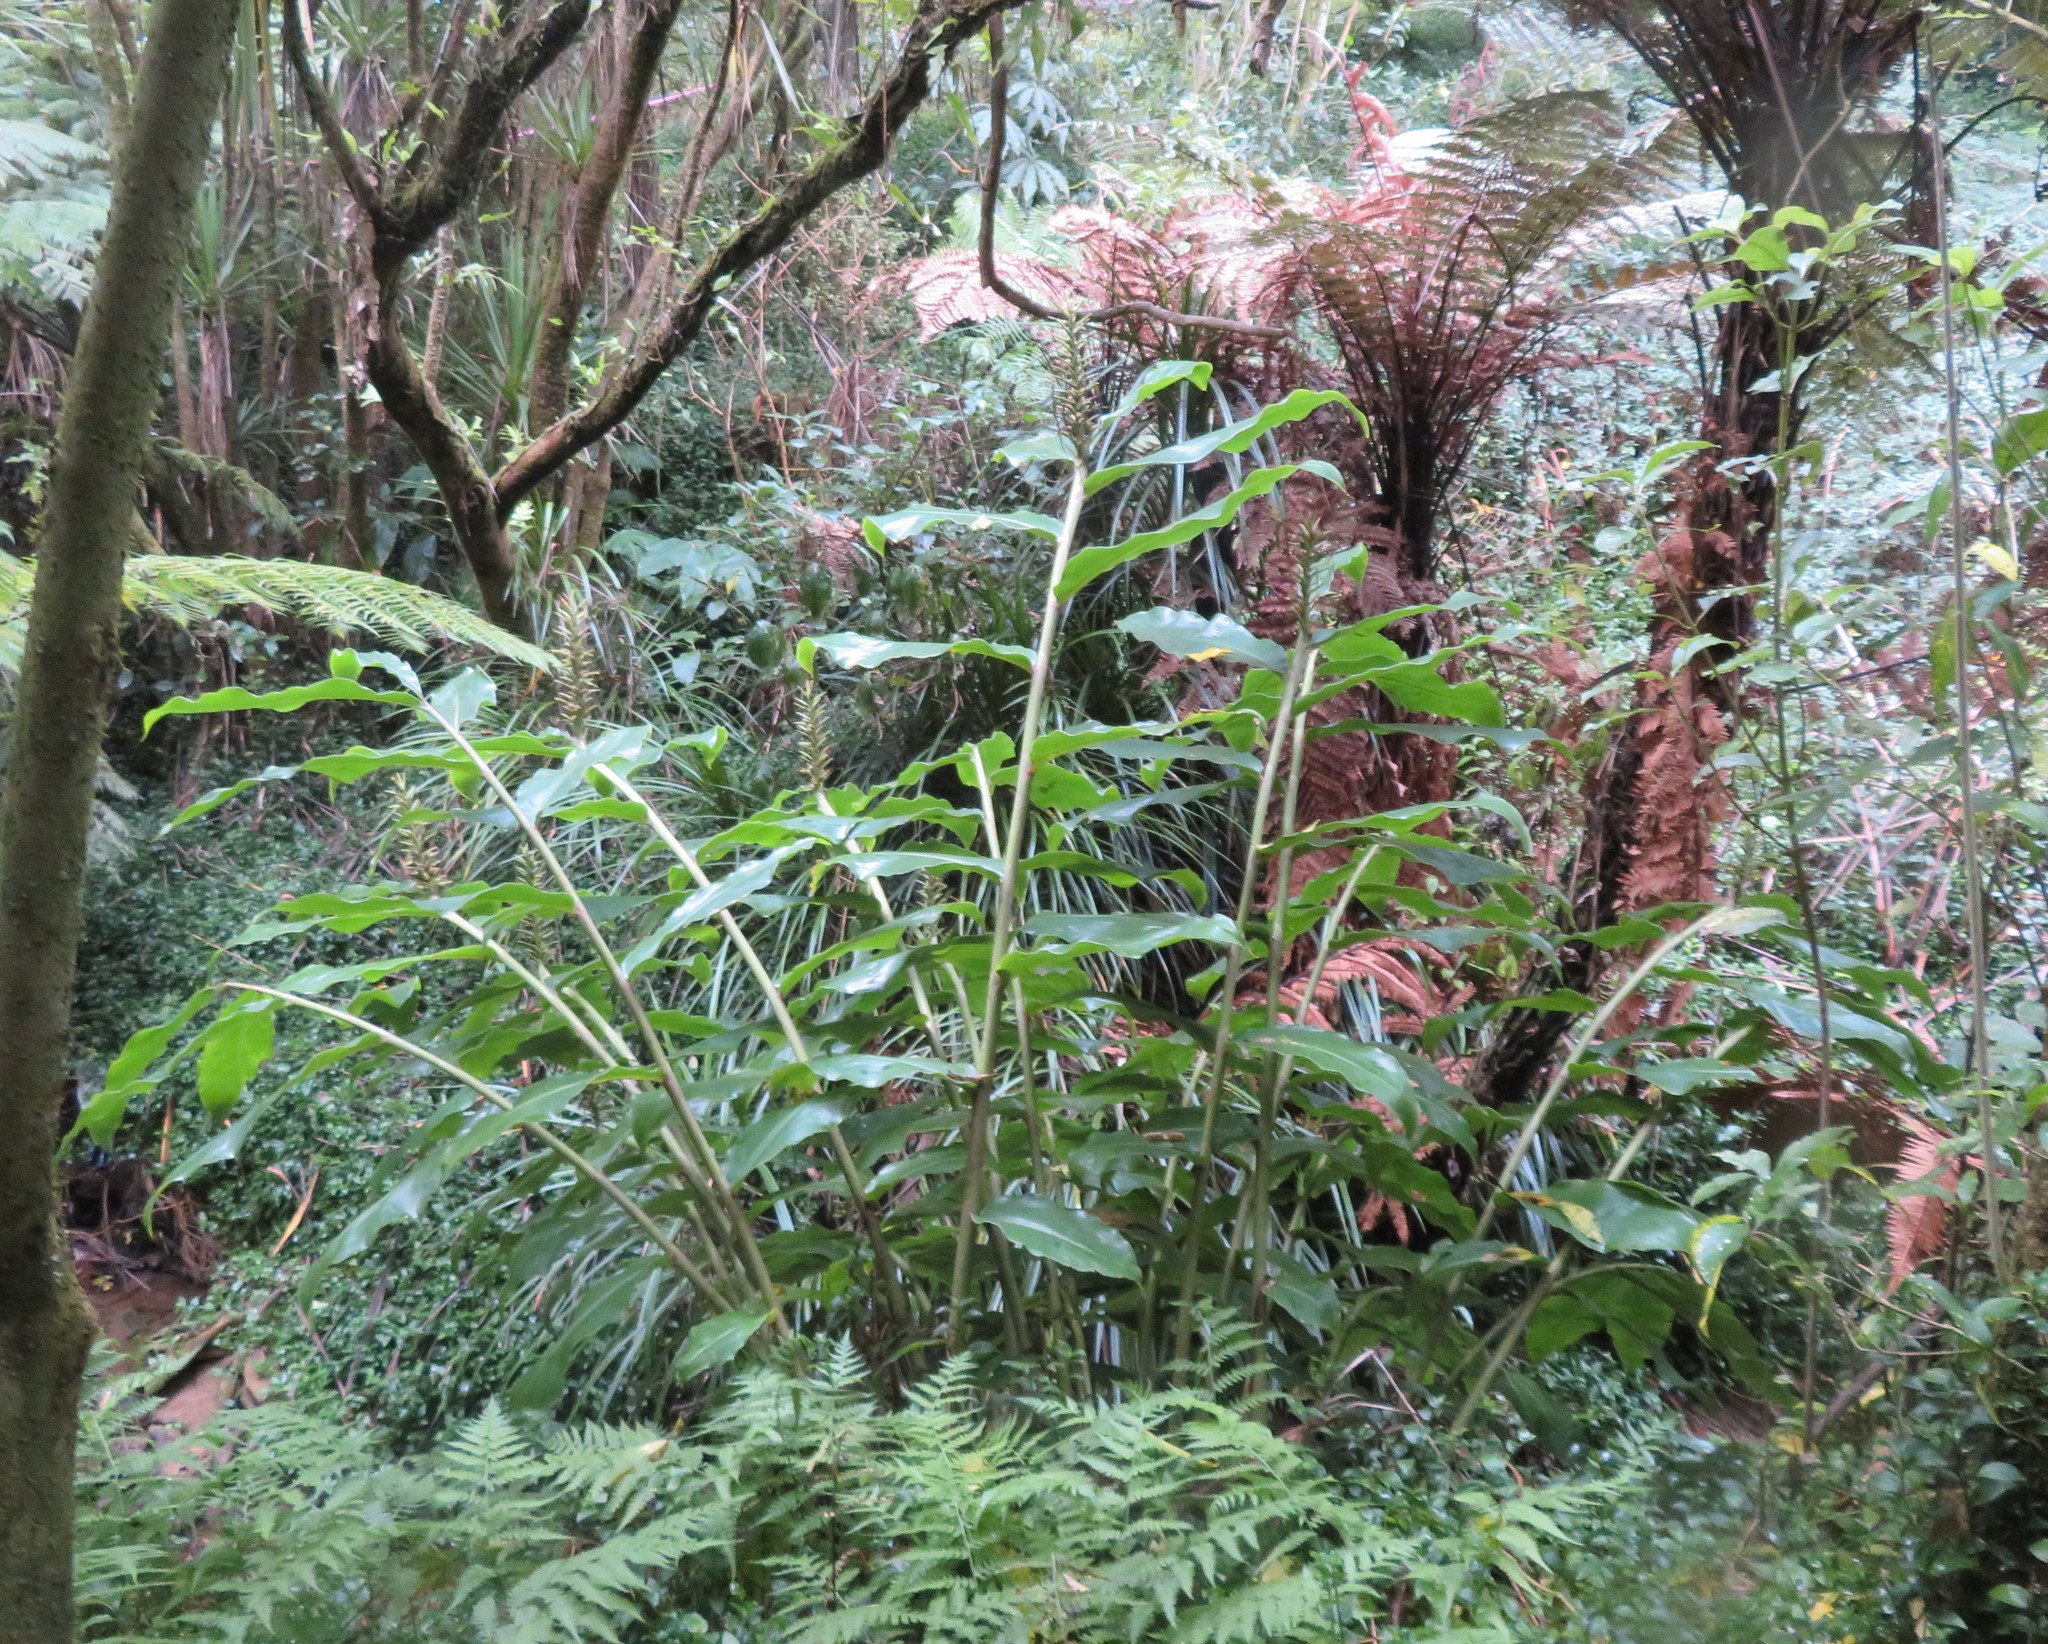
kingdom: Plantae
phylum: Tracheophyta
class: Liliopsida
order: Zingiberales
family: Zingiberaceae
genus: Hedychium
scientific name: Hedychium gardnerianum
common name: Himalayan ginger
